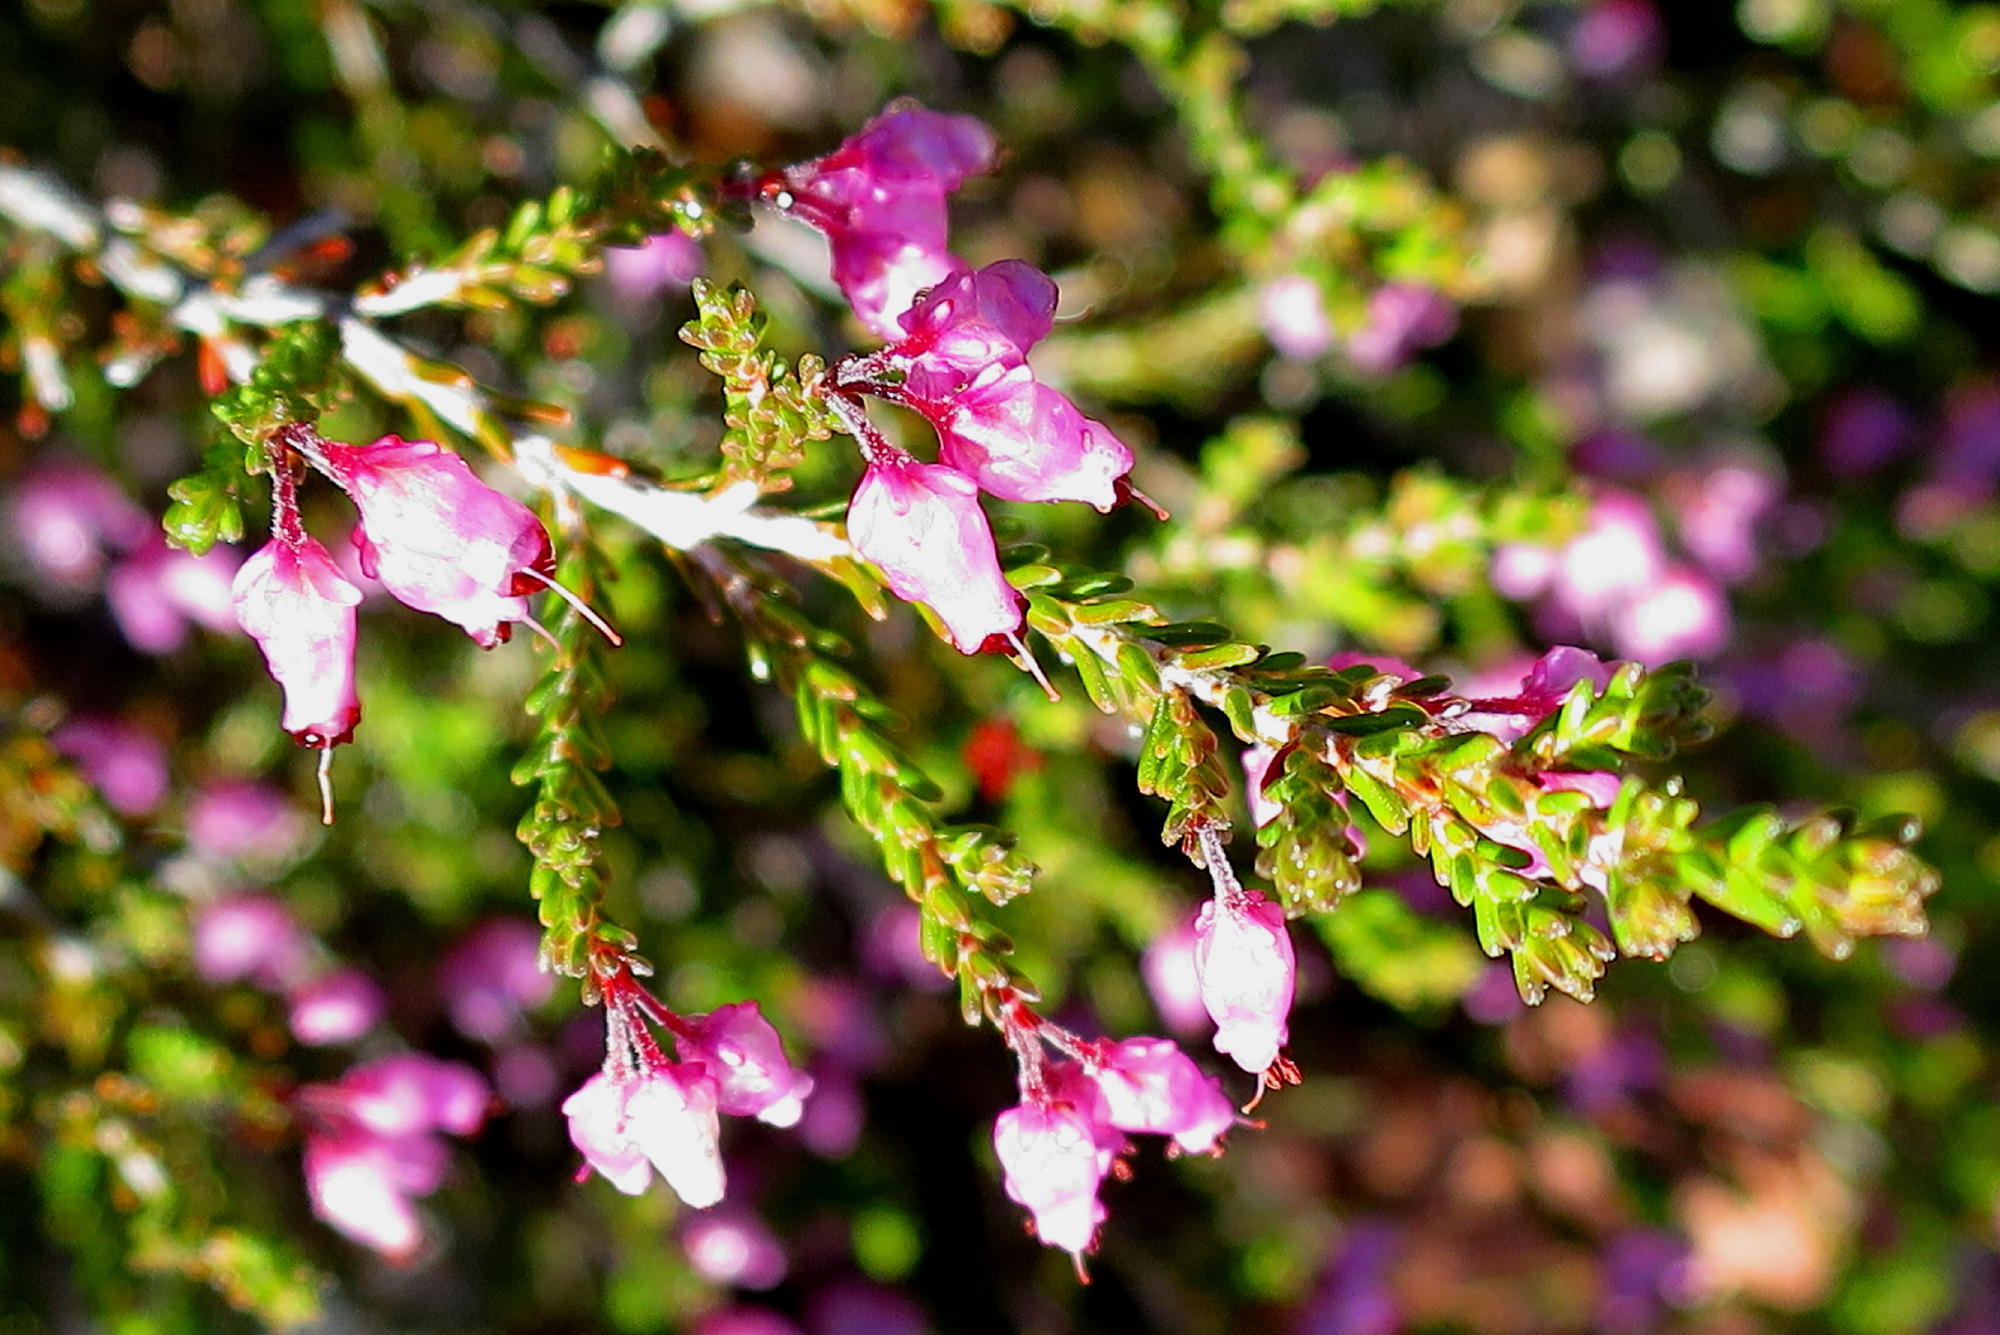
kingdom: Plantae
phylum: Tracheophyta
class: Magnoliopsida
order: Ericales
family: Ericaceae
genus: Erica
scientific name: Erica vlokii
